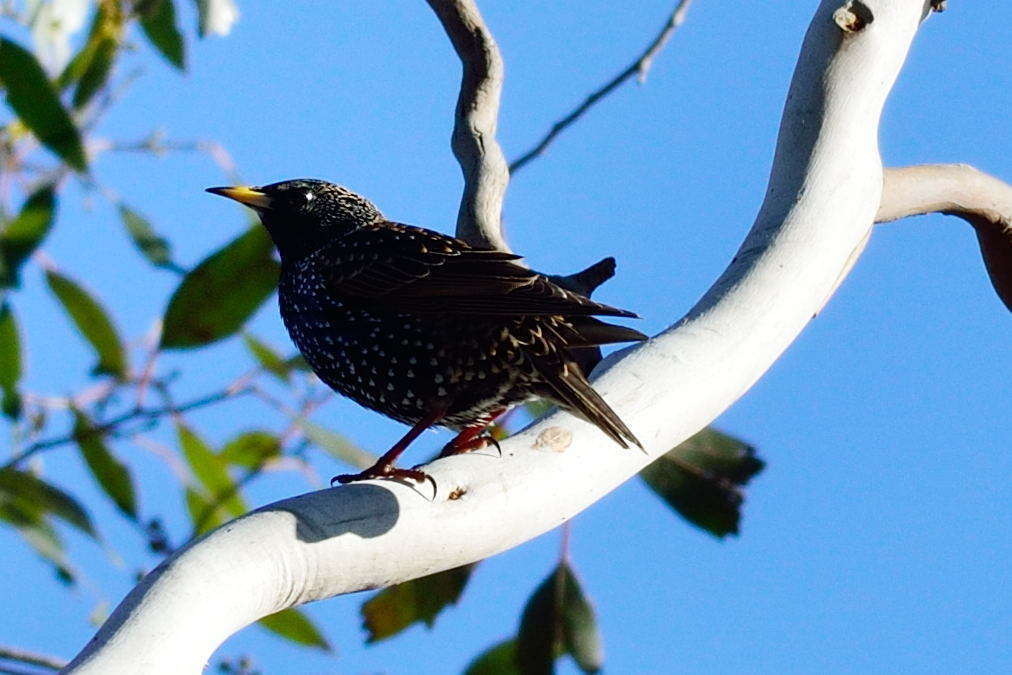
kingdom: Animalia
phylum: Chordata
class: Aves
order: Passeriformes
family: Sturnidae
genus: Sturnus
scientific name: Sturnus vulgaris
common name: Common starling
